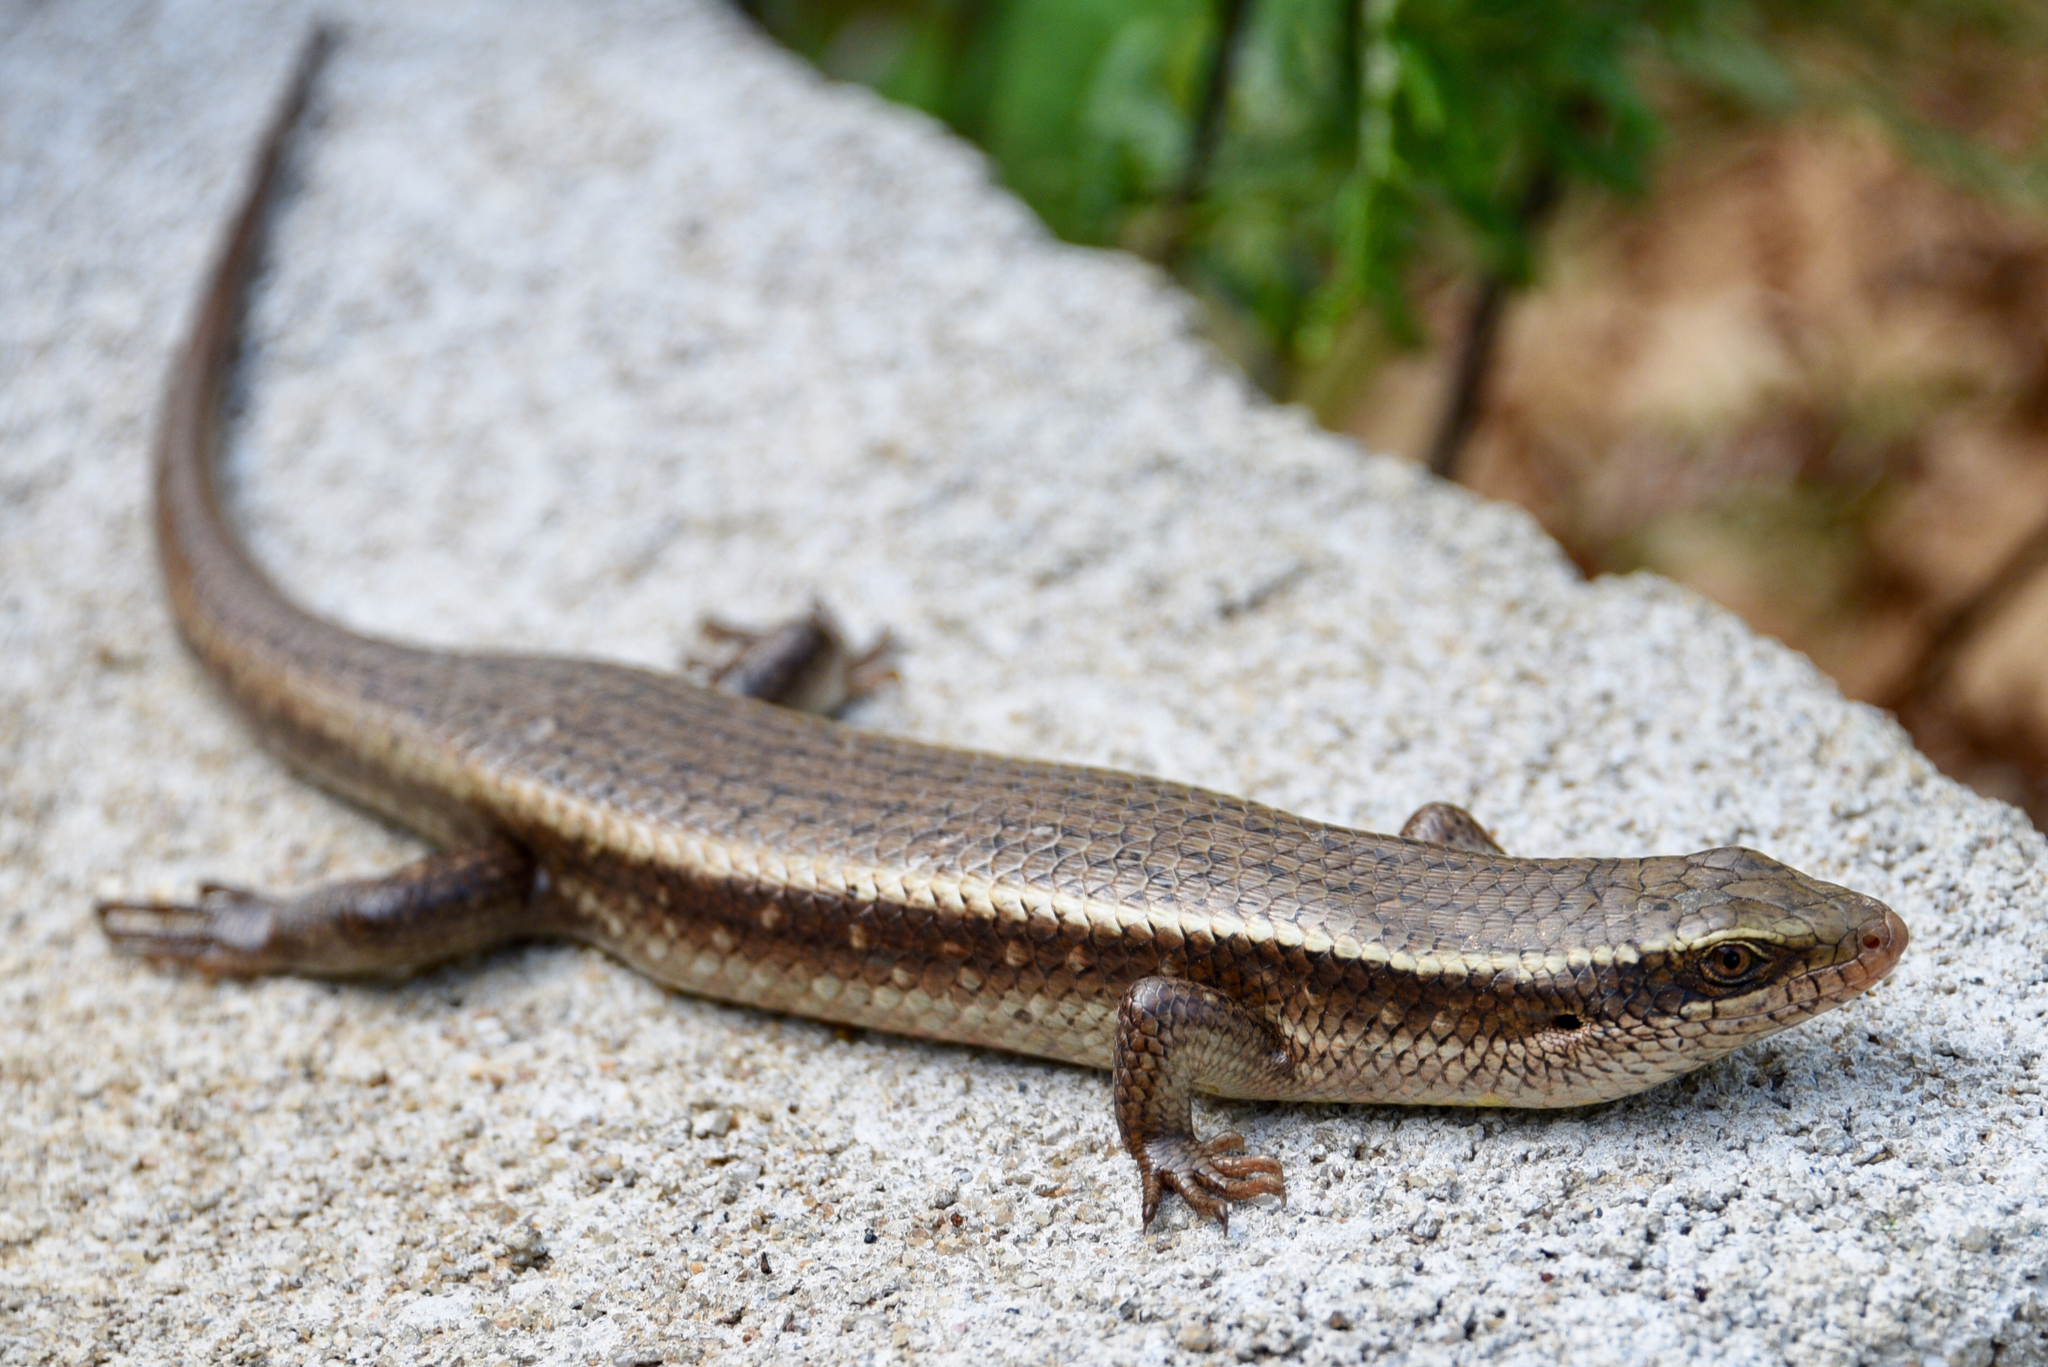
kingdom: Animalia
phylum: Chordata
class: Squamata
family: Scincidae
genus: Eutropis
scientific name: Eutropis lankae
